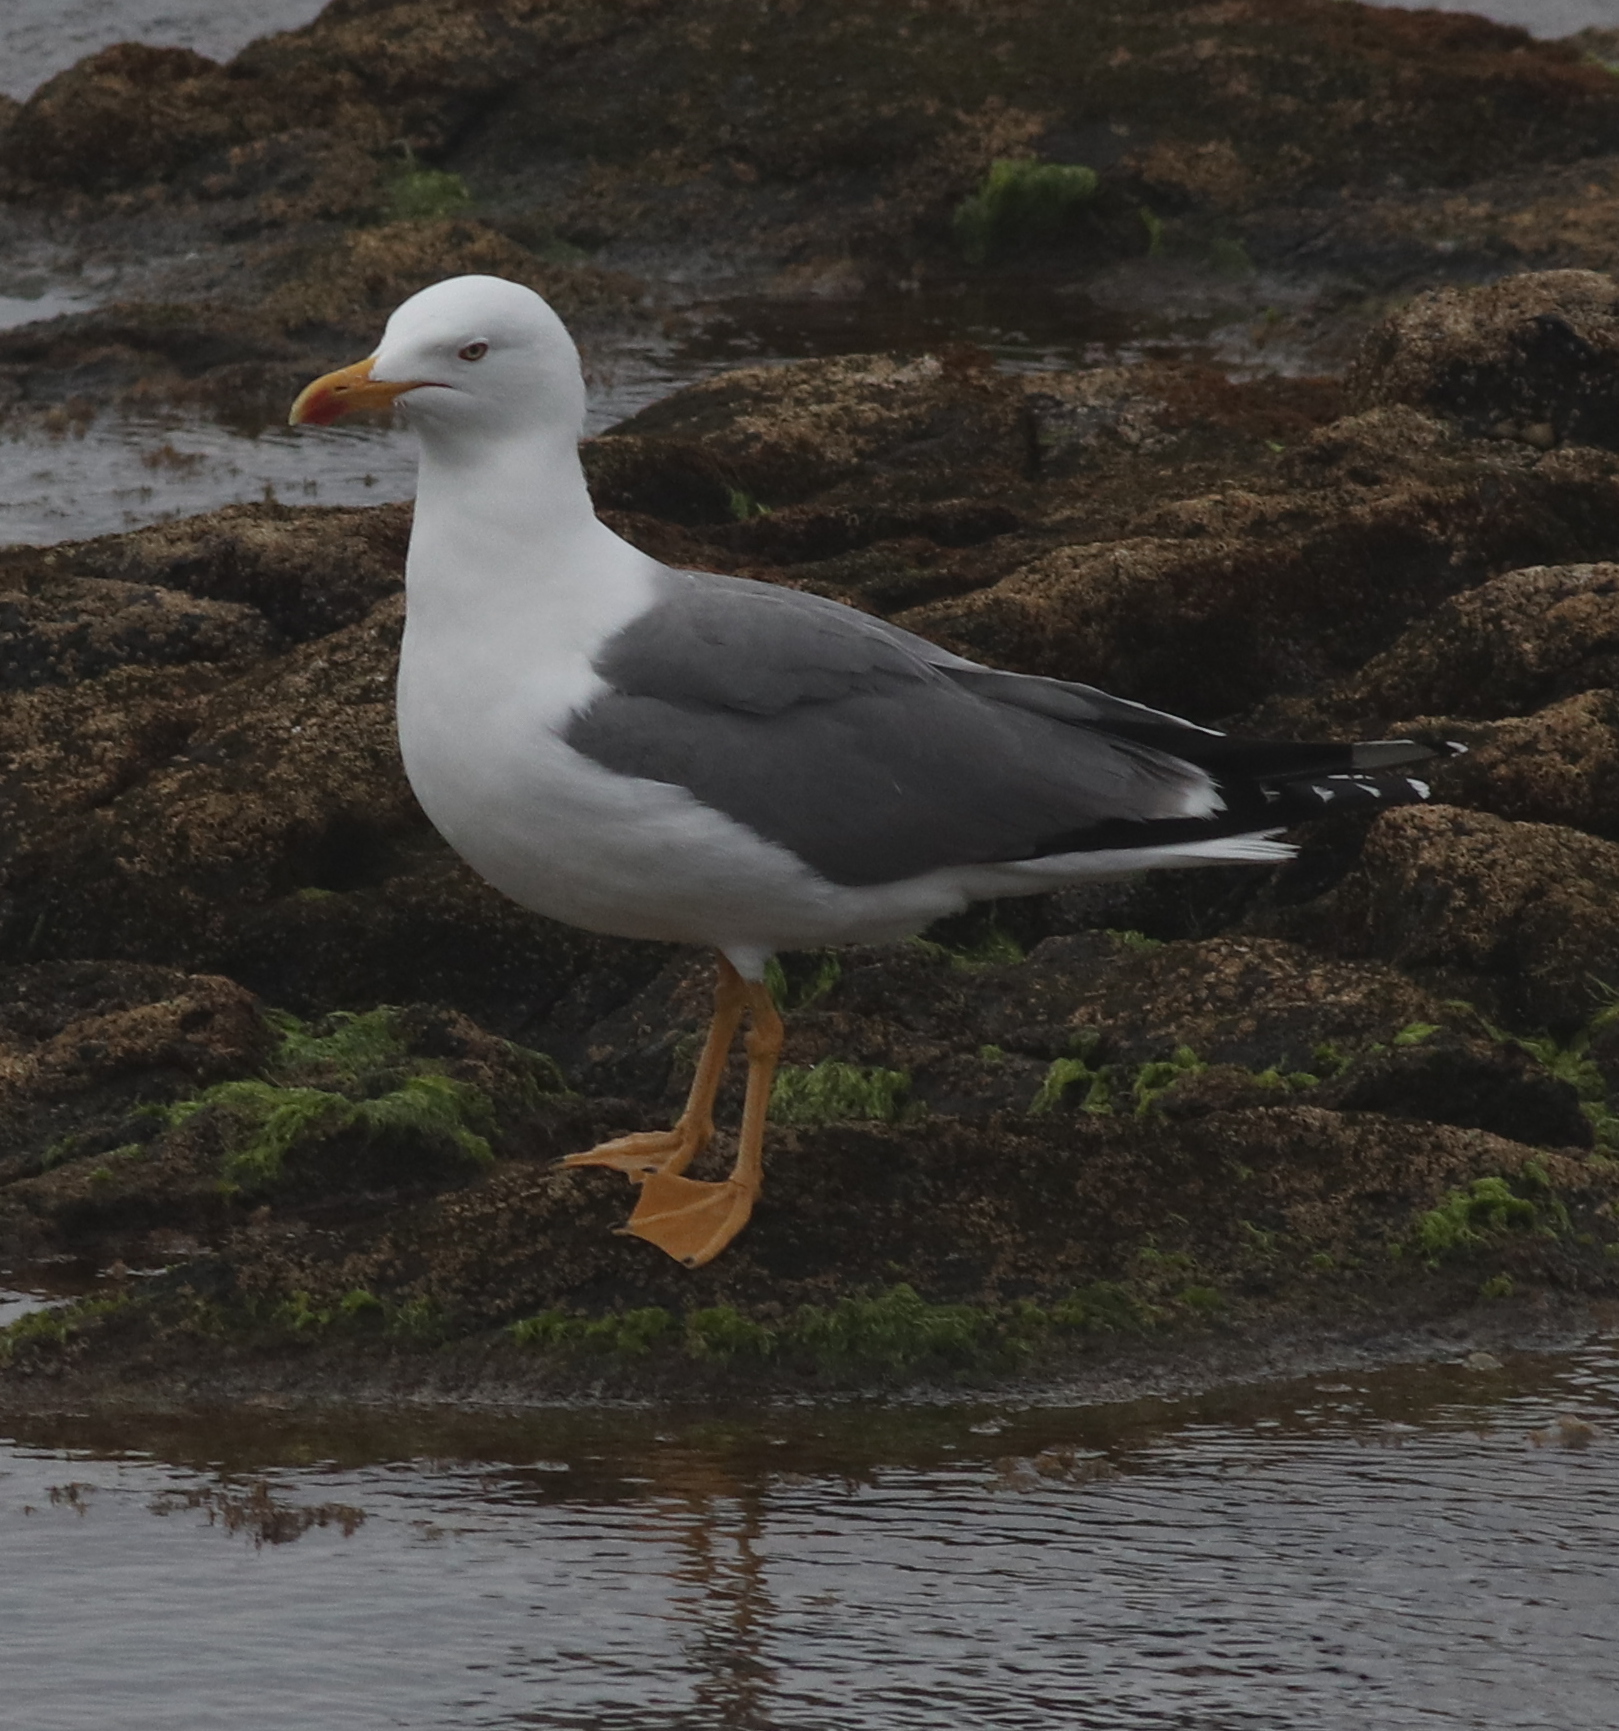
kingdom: Animalia
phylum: Chordata
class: Aves
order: Charadriiformes
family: Laridae
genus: Larus
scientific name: Larus michahellis
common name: Yellow-legged gull
